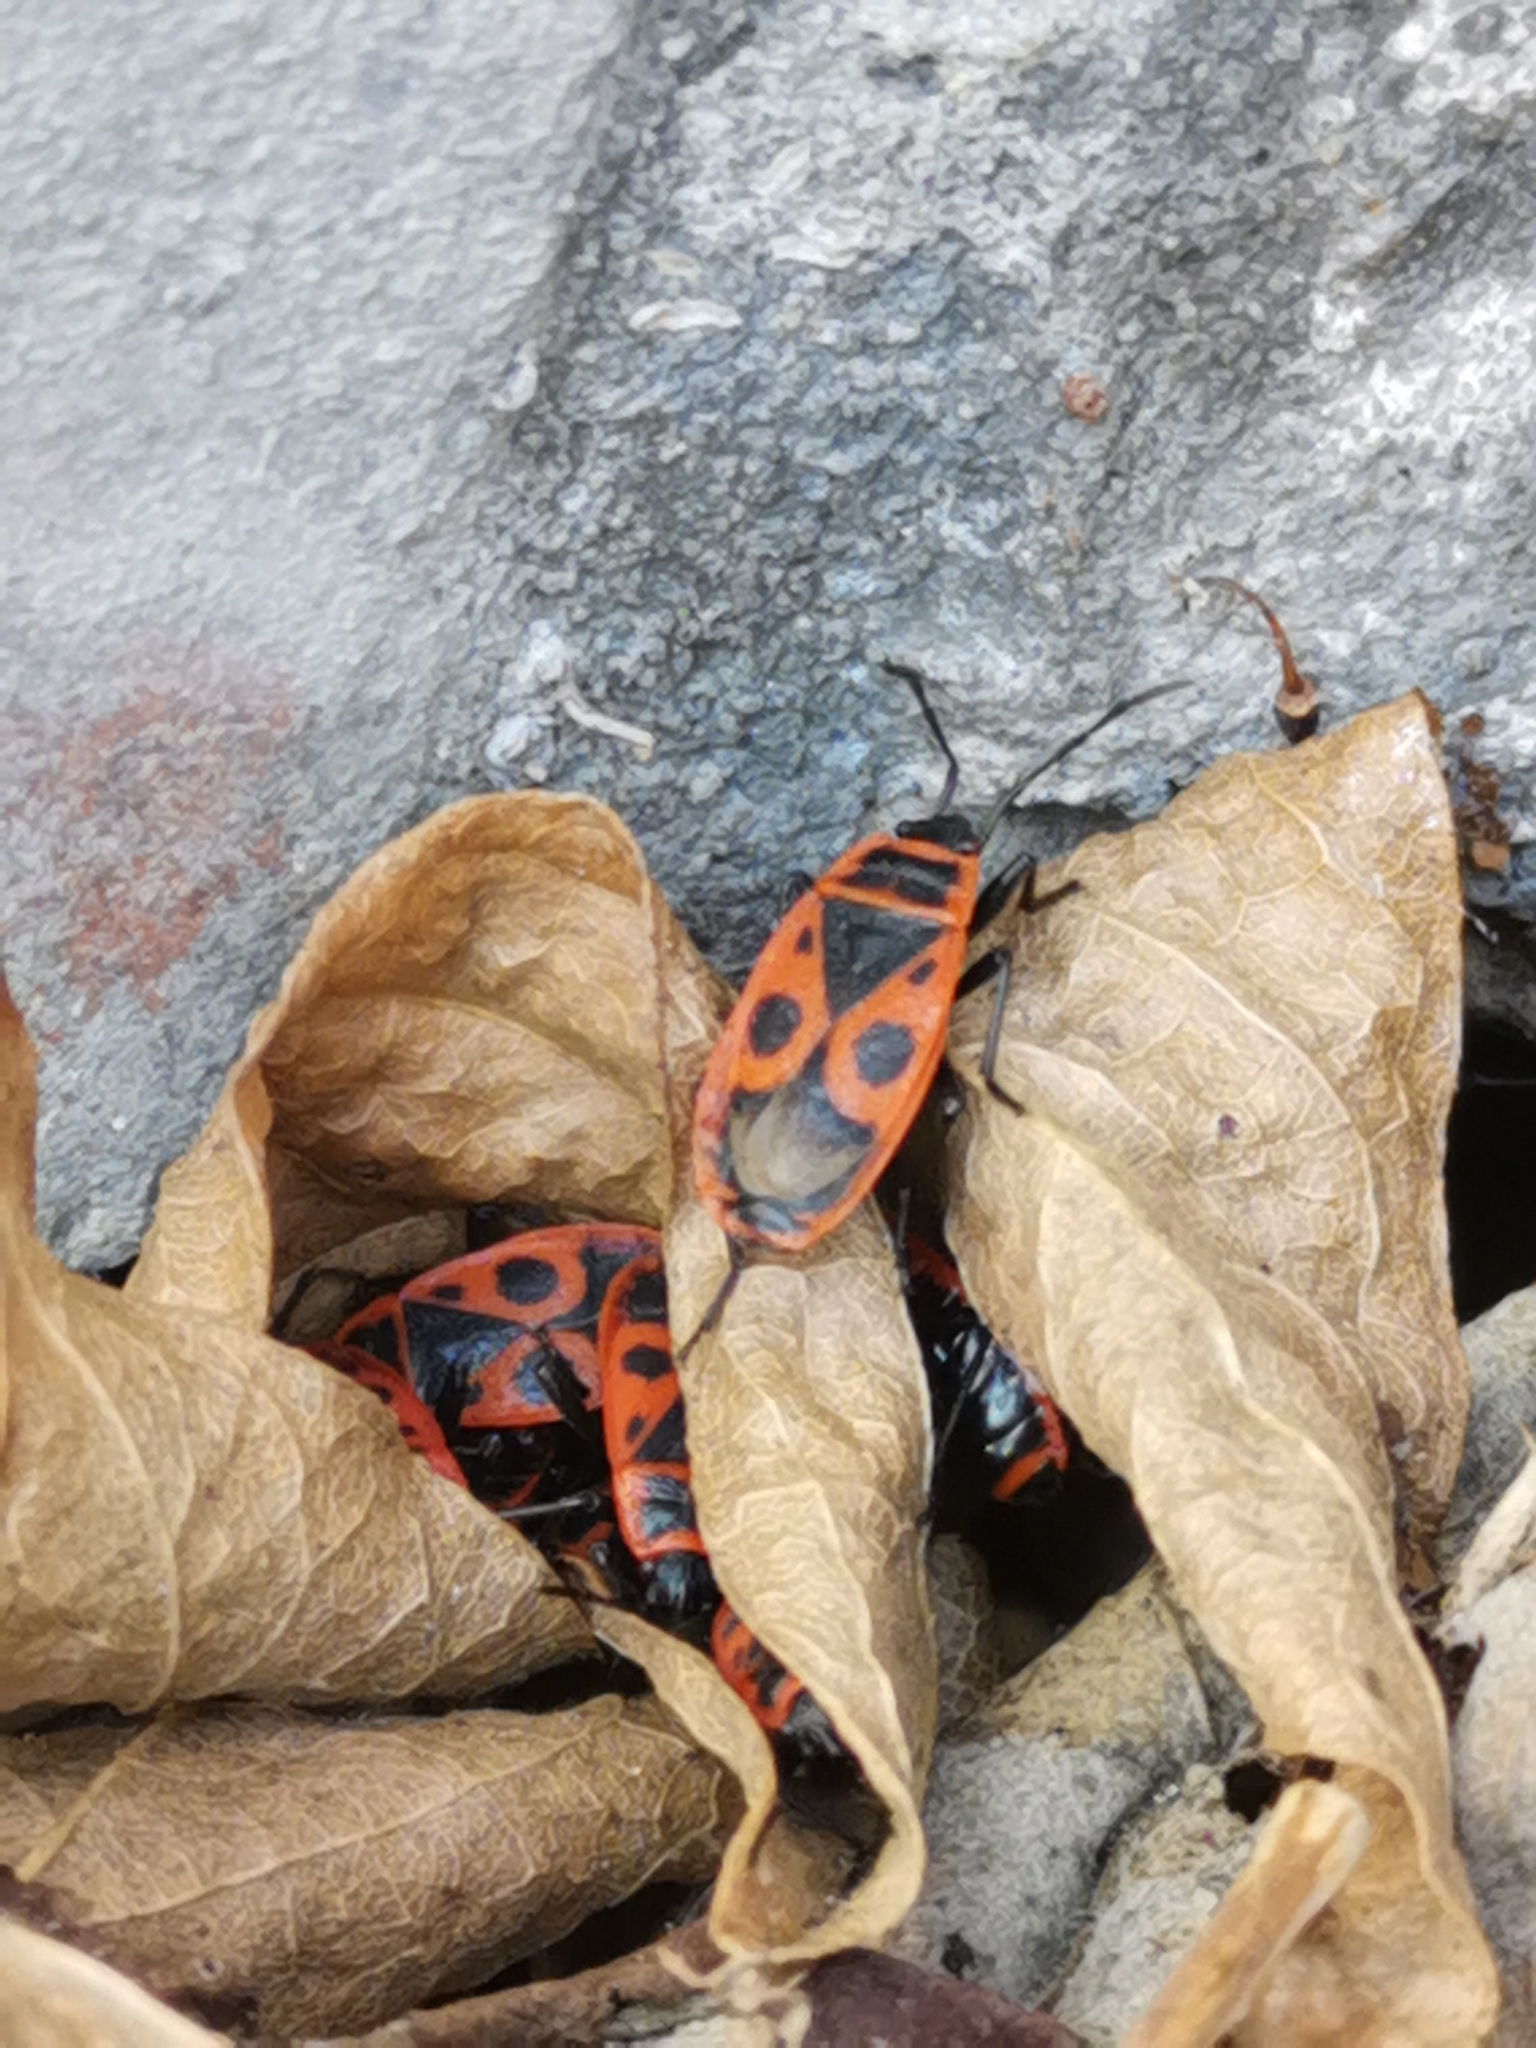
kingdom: Animalia
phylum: Arthropoda
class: Insecta
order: Hemiptera
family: Pyrrhocoridae
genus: Pyrrhocoris
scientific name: Pyrrhocoris apterus
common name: Firebug
